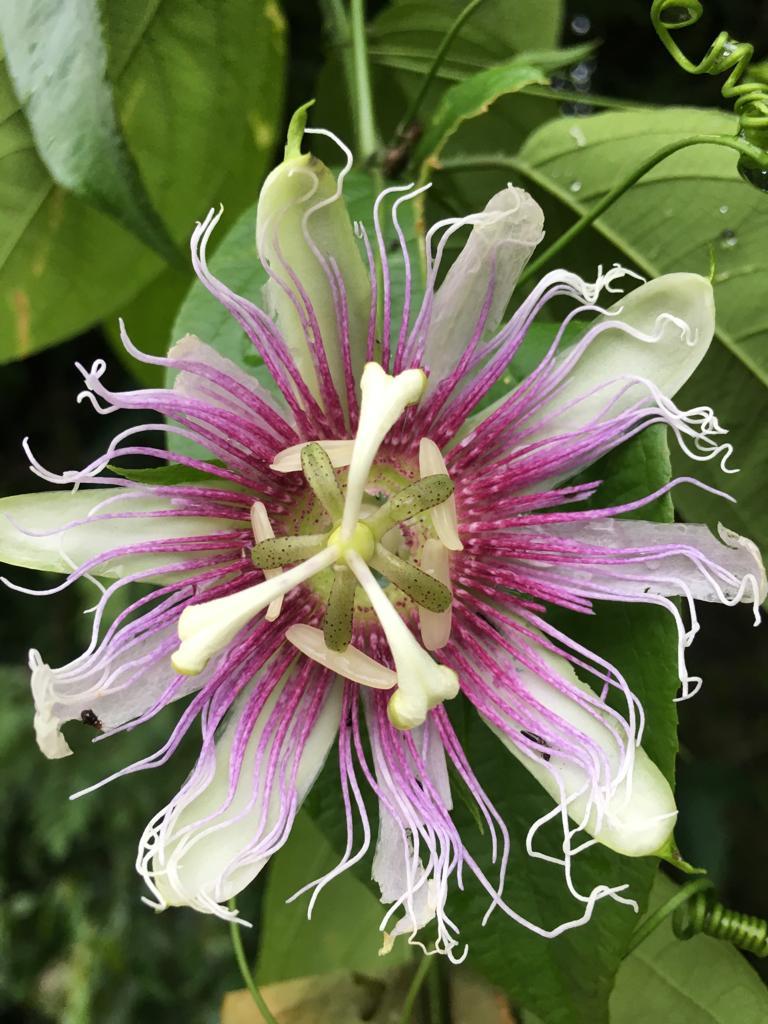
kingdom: Plantae
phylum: Tracheophyta
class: Magnoliopsida
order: Malpighiales
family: Passifloraceae
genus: Passiflora
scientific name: Passiflora serratifolia
